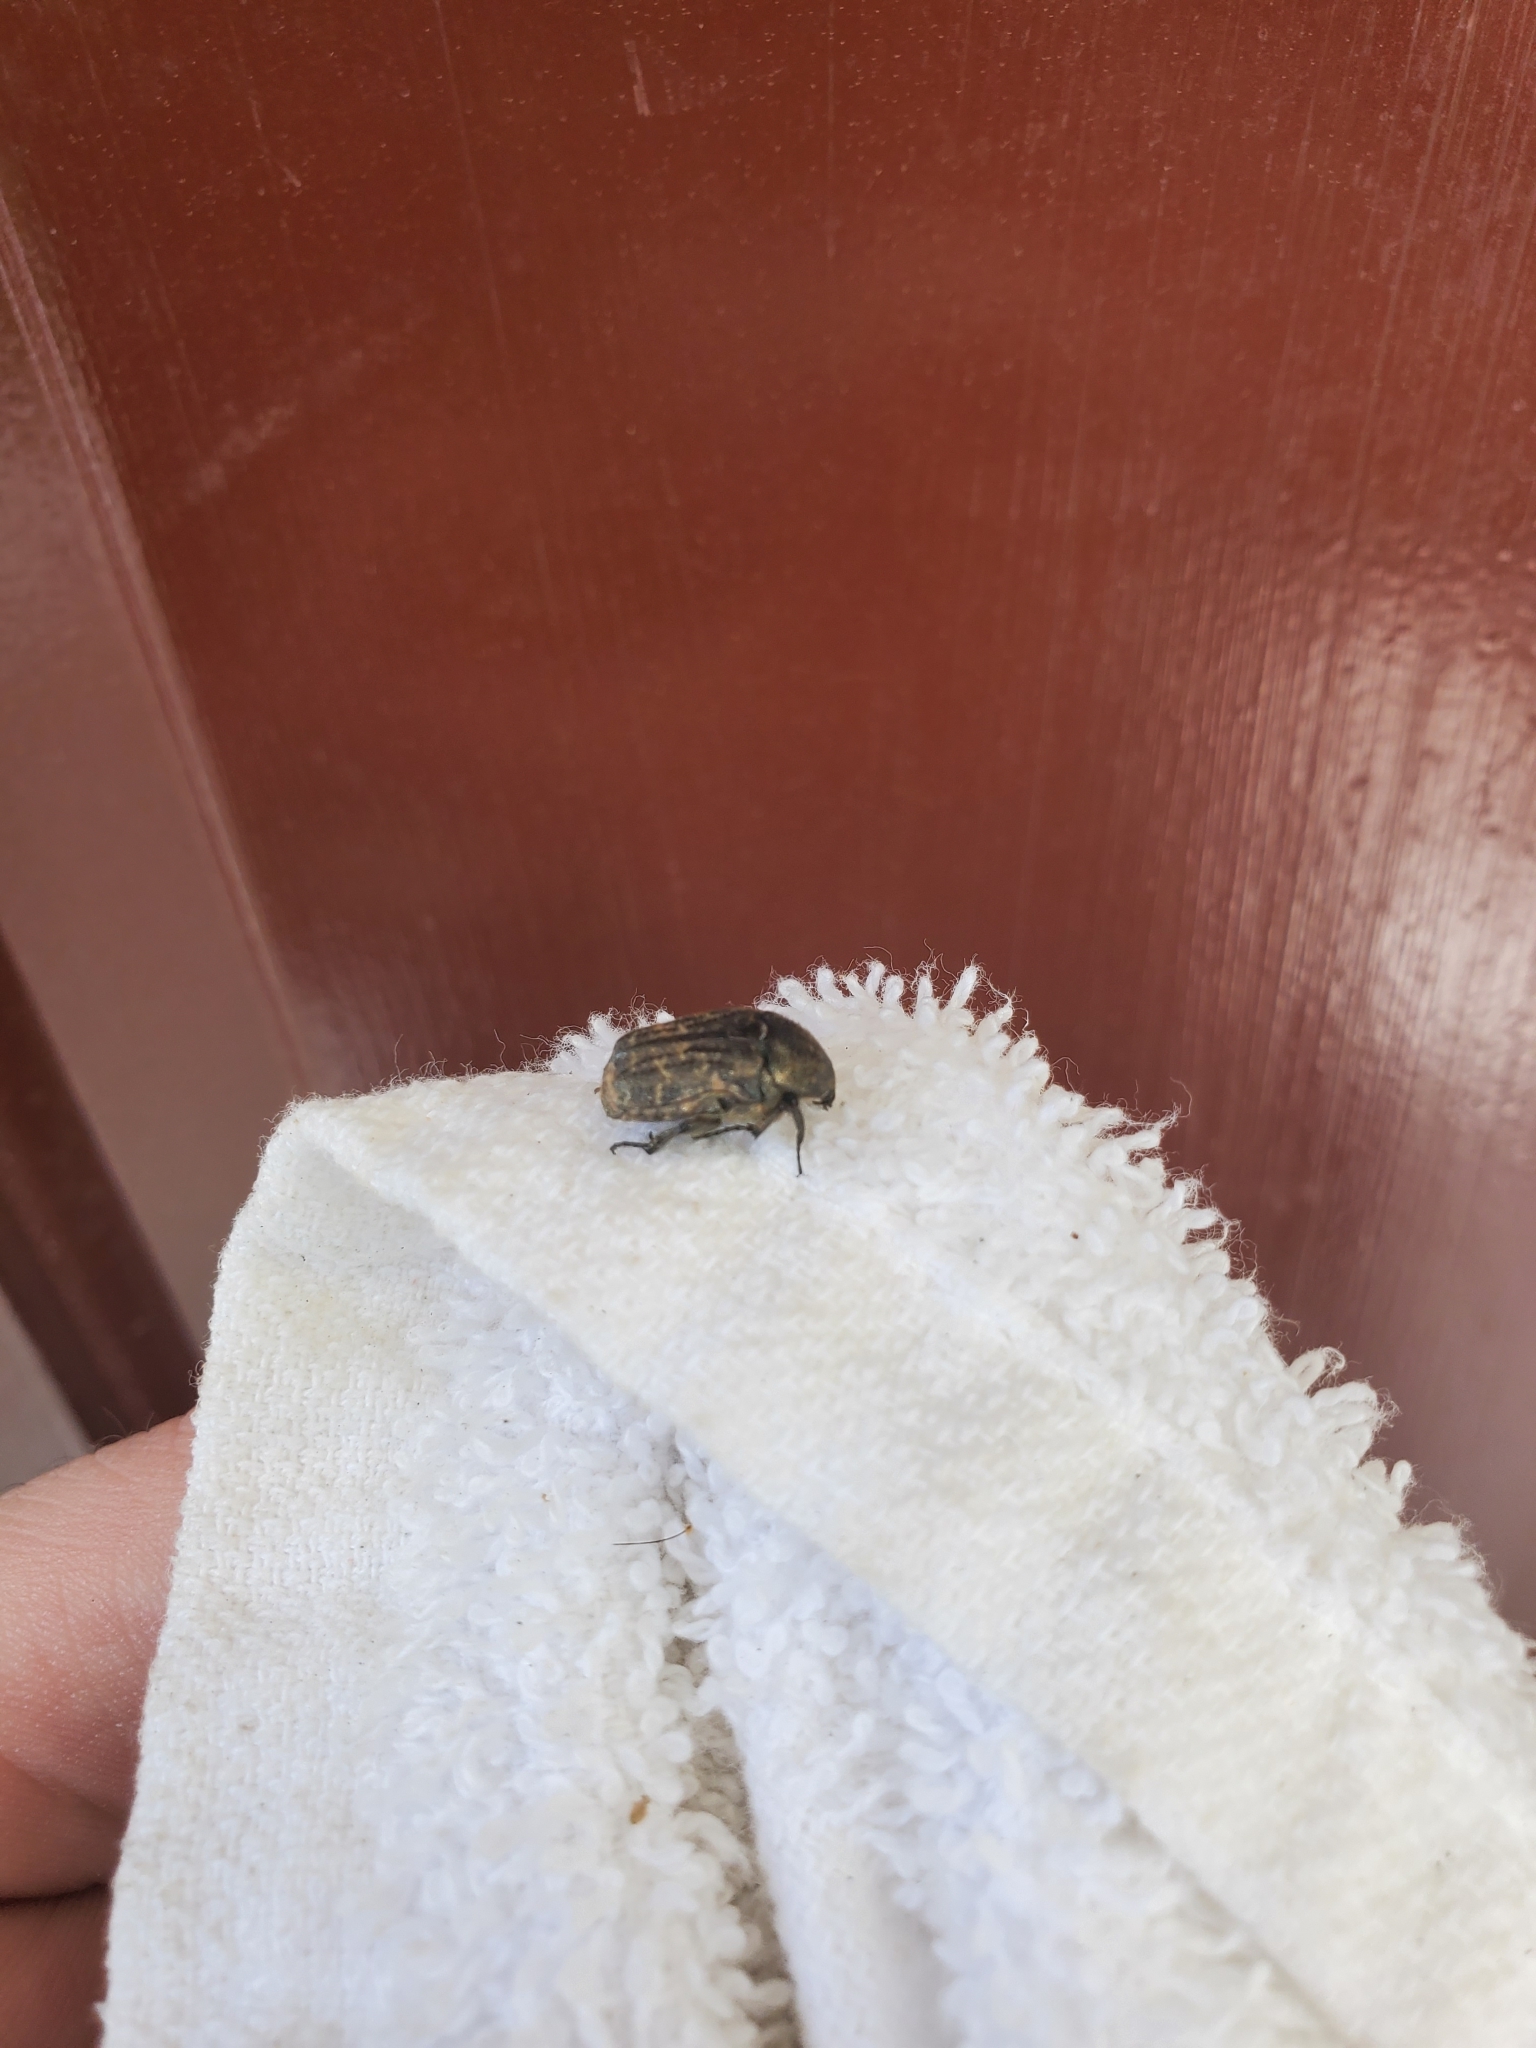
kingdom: Animalia
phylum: Arthropoda
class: Insecta
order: Coleoptera
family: Scarabaeidae
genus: Euphoria
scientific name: Euphoria sepulcralis
